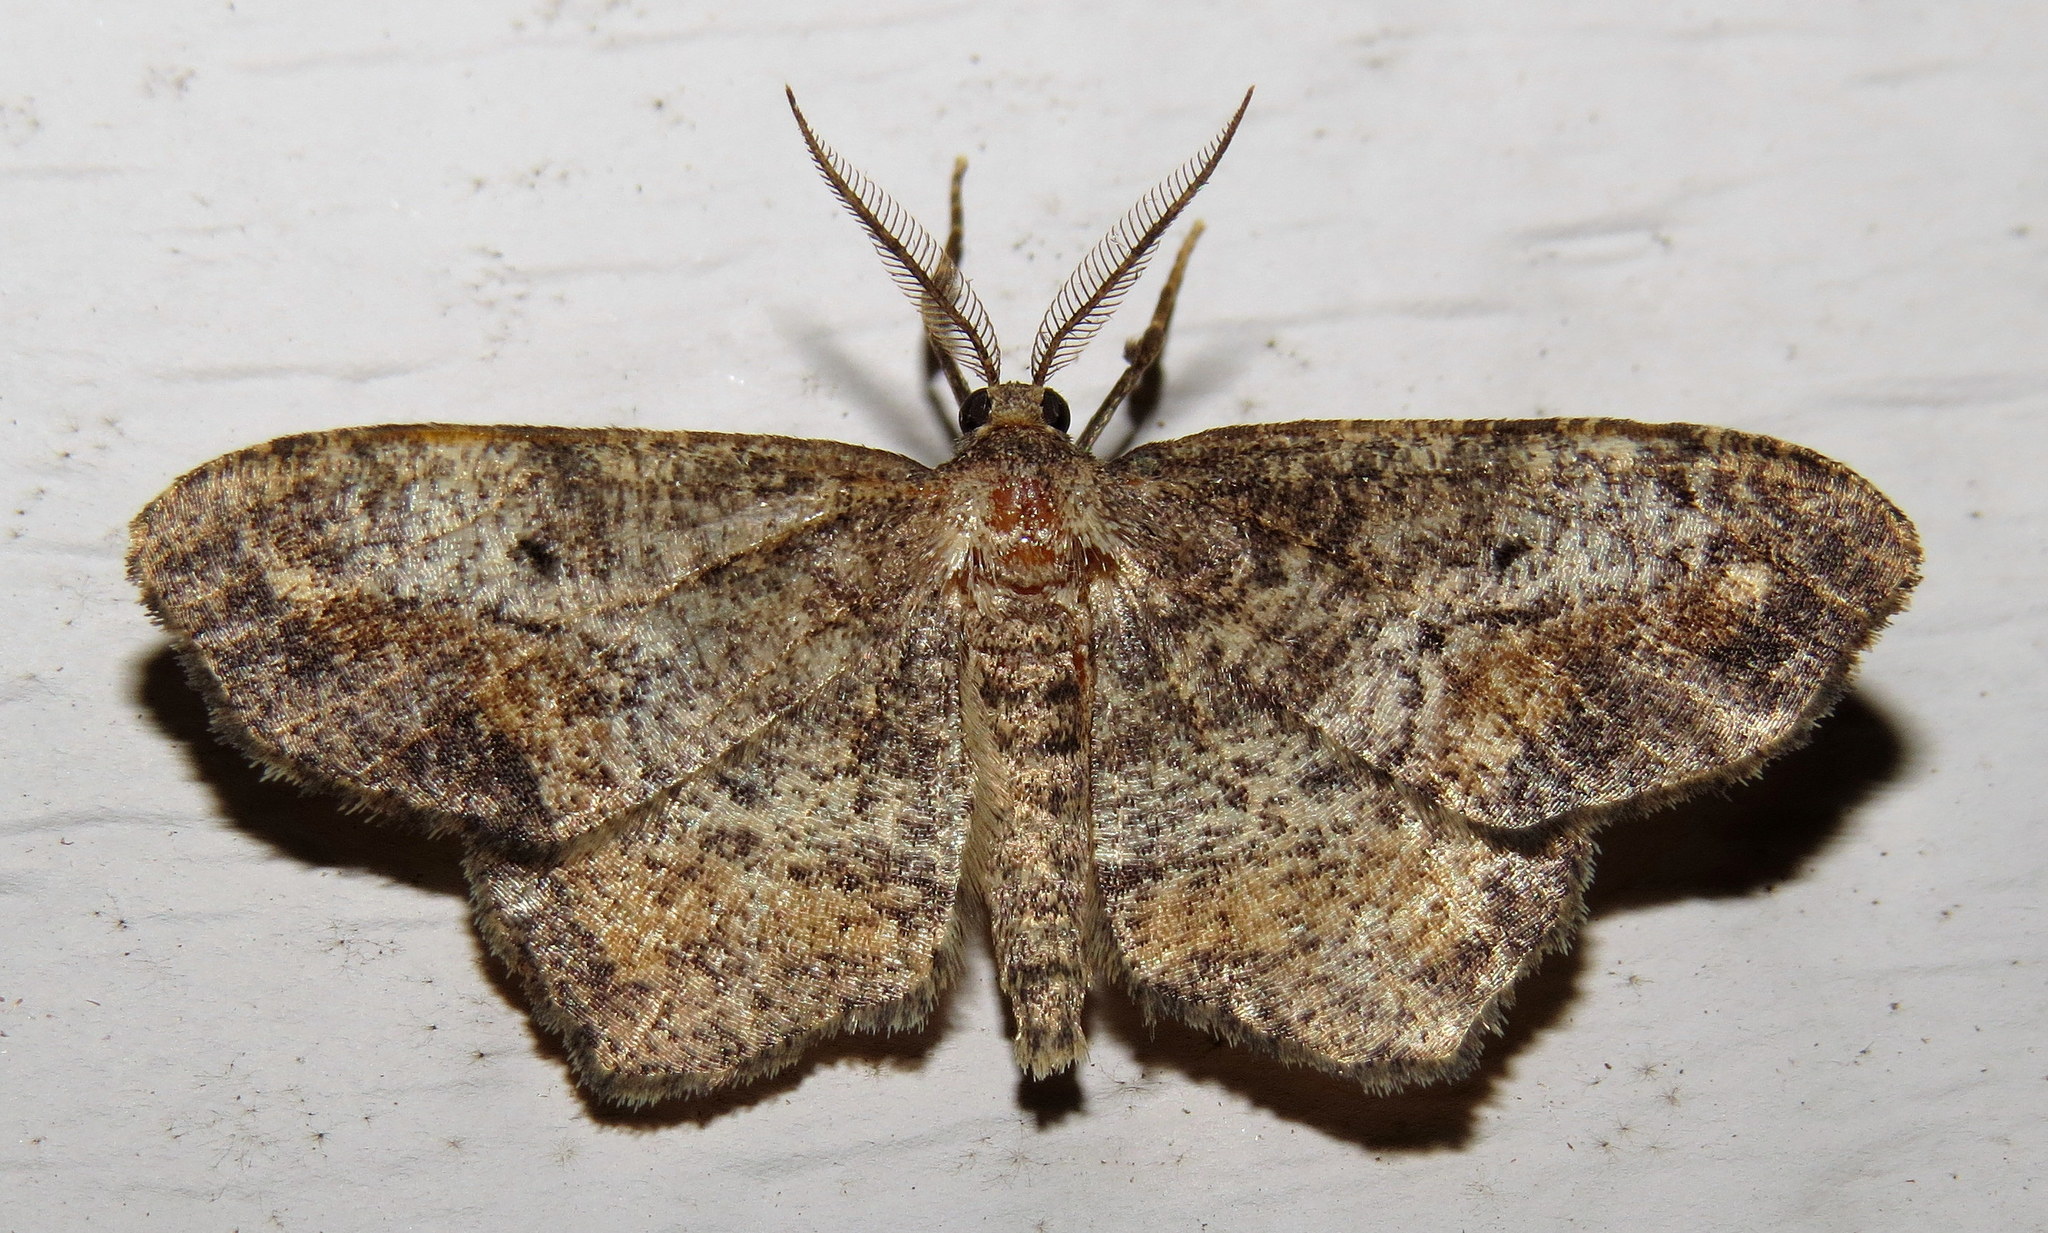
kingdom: Animalia
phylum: Arthropoda
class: Insecta
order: Lepidoptera
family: Geometridae
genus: Hypagyrtis
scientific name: Hypagyrtis unipunctata
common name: One-spotted variant
